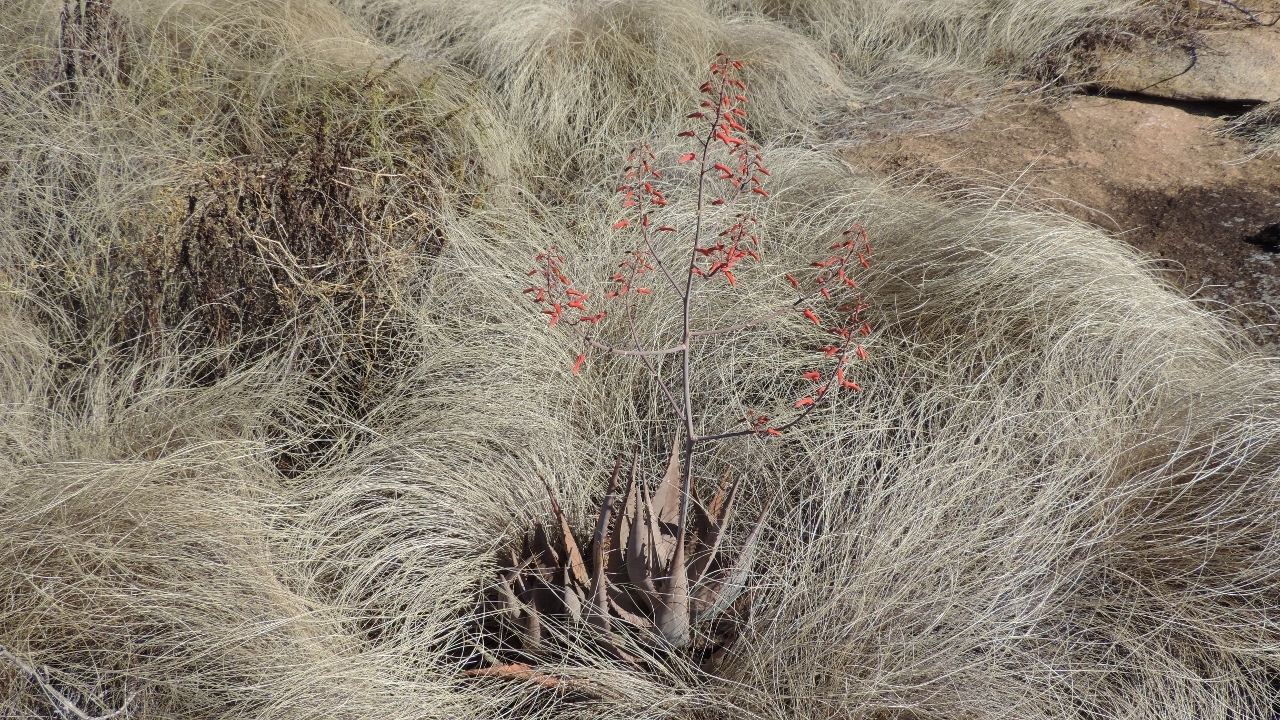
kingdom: Plantae
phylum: Tracheophyta
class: Liliopsida
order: Asparagales
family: Asphodelaceae
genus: Aloe
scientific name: Aloe chabaudii
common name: Chabaud's aloe
